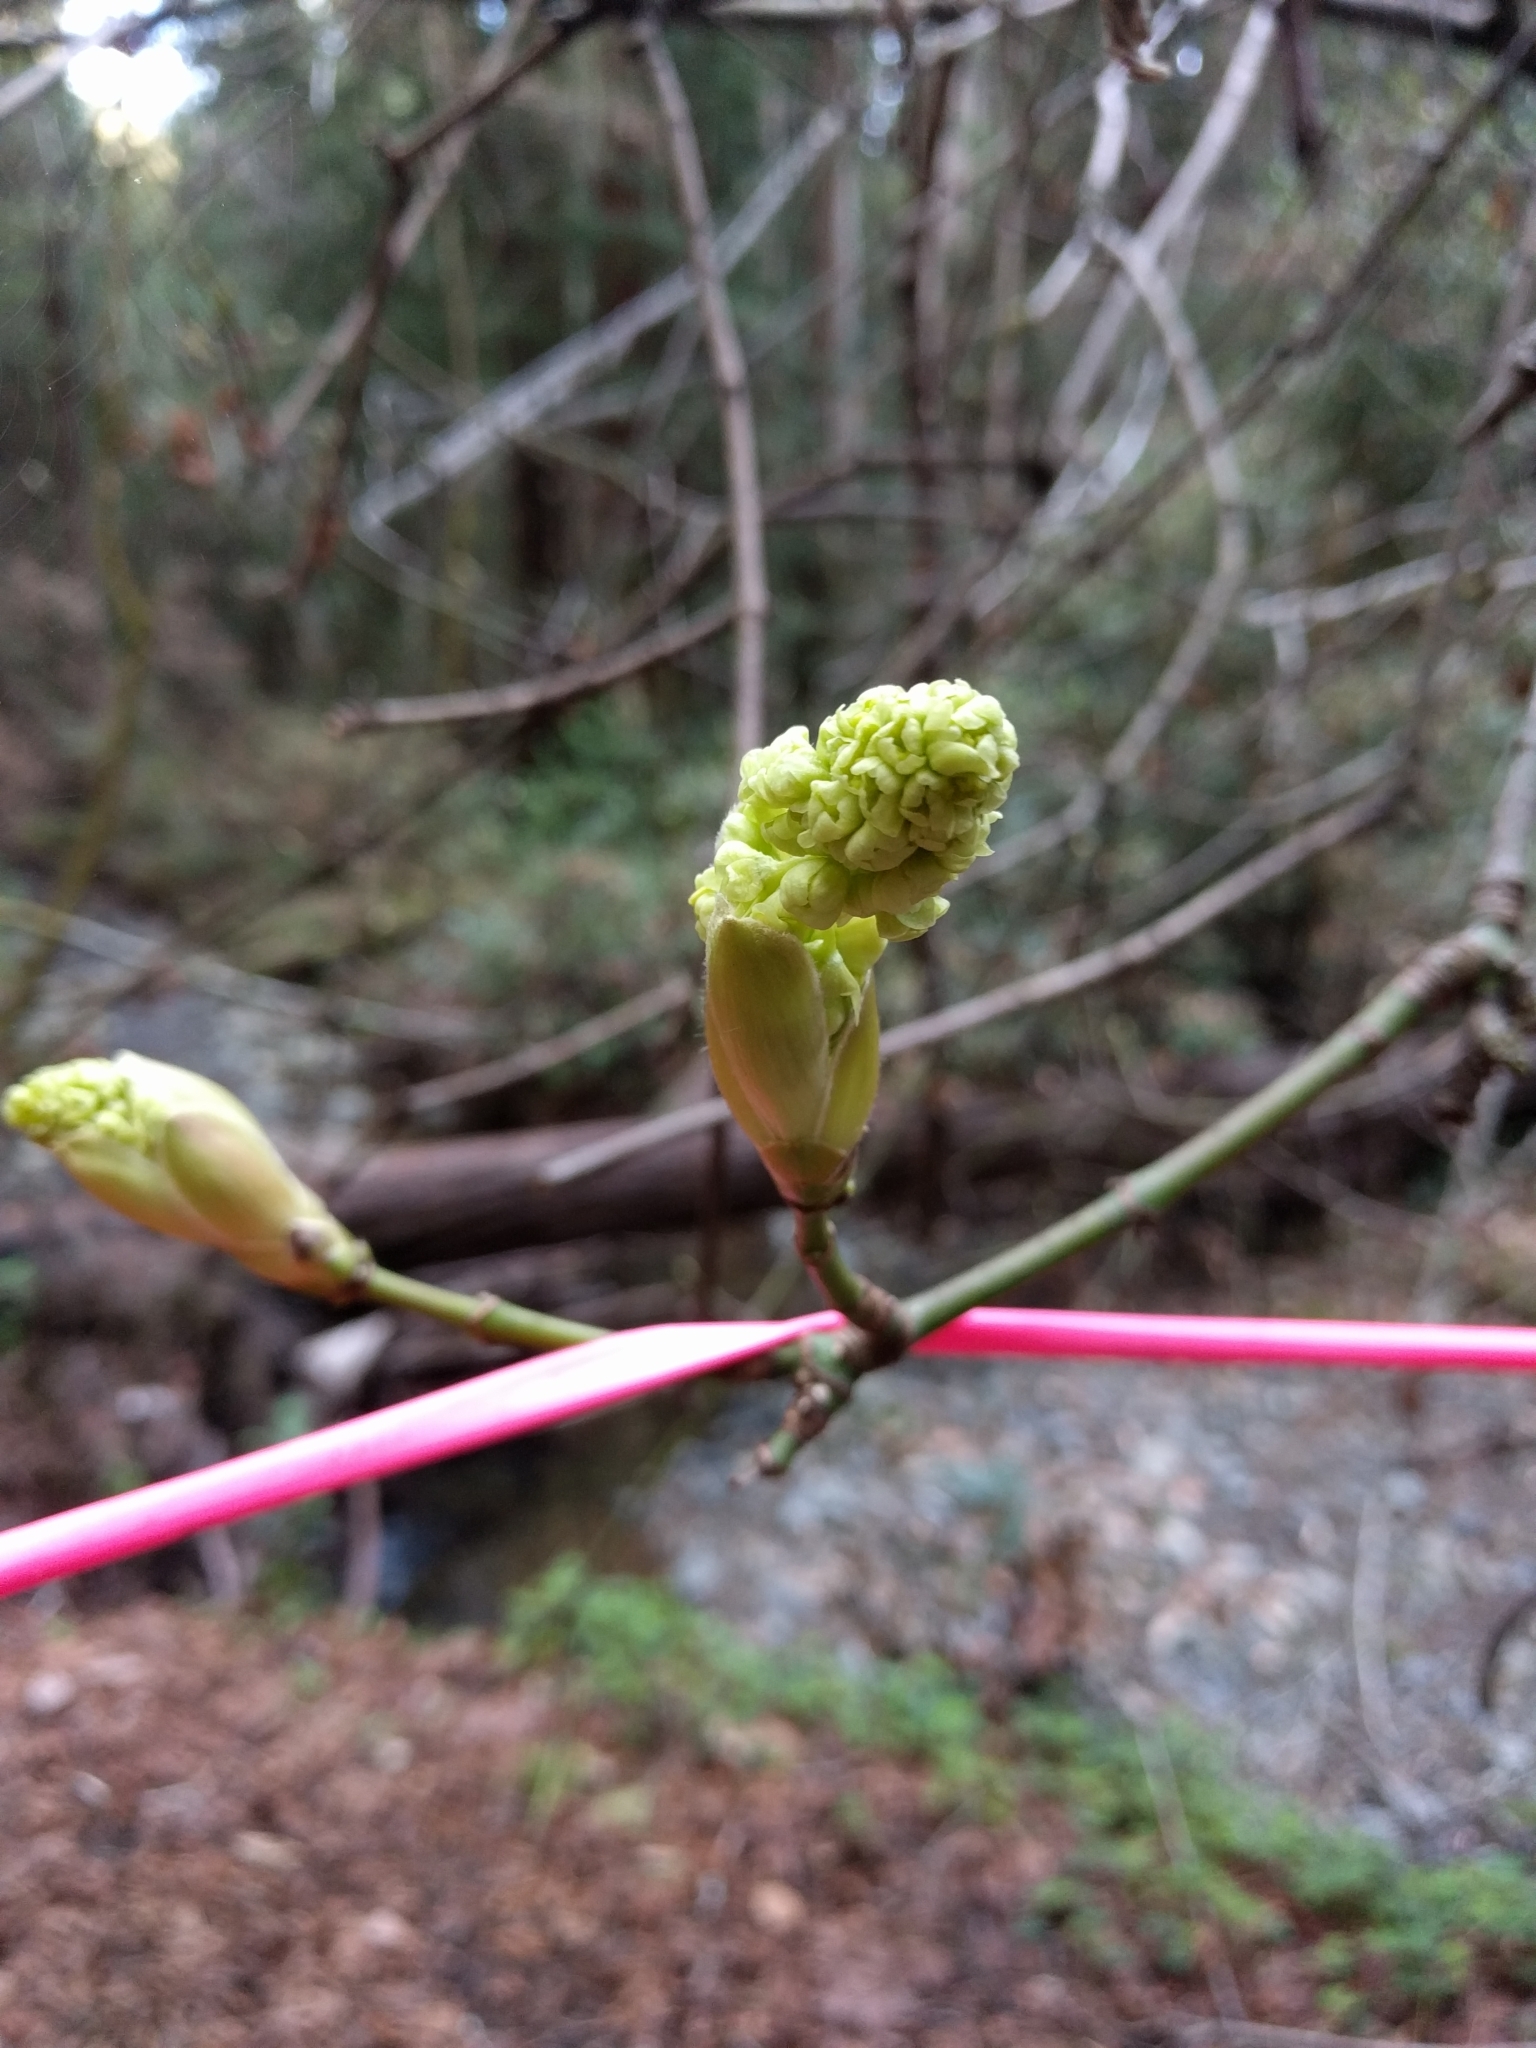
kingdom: Plantae
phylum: Tracheophyta
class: Magnoliopsida
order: Sapindales
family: Sapindaceae
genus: Acer
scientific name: Acer macrophyllum
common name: Oregon maple
